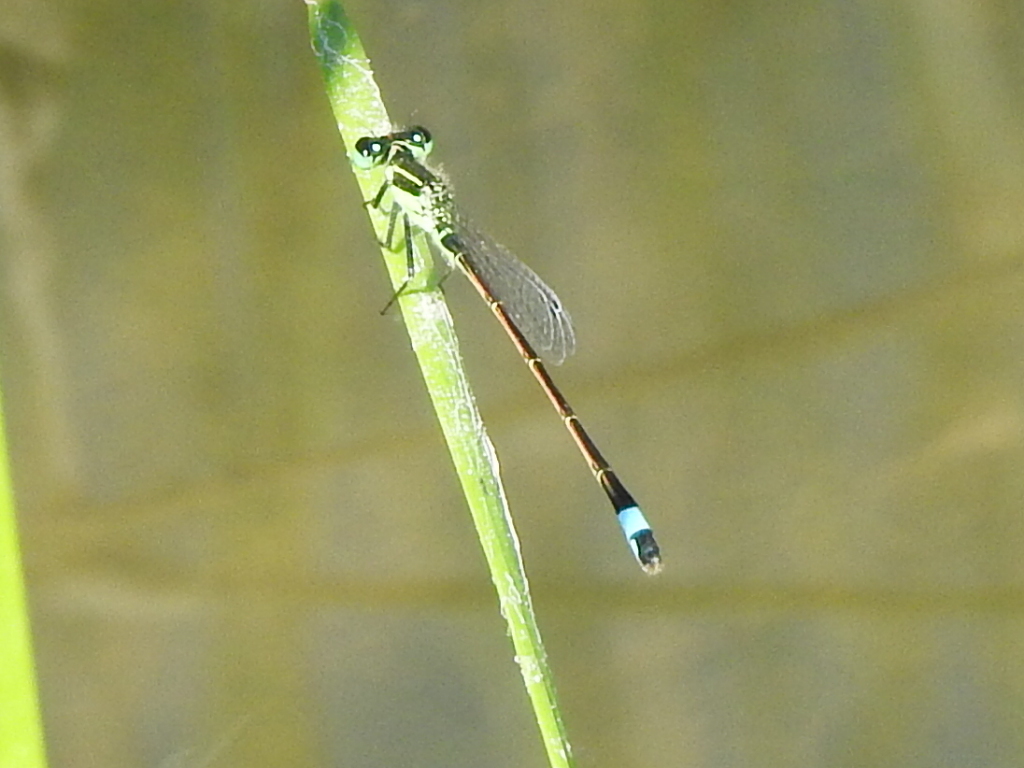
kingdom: Animalia
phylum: Arthropoda
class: Insecta
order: Odonata
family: Coenagrionidae
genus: Ischnura
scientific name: Ischnura ramburii
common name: Rambur's forktail
